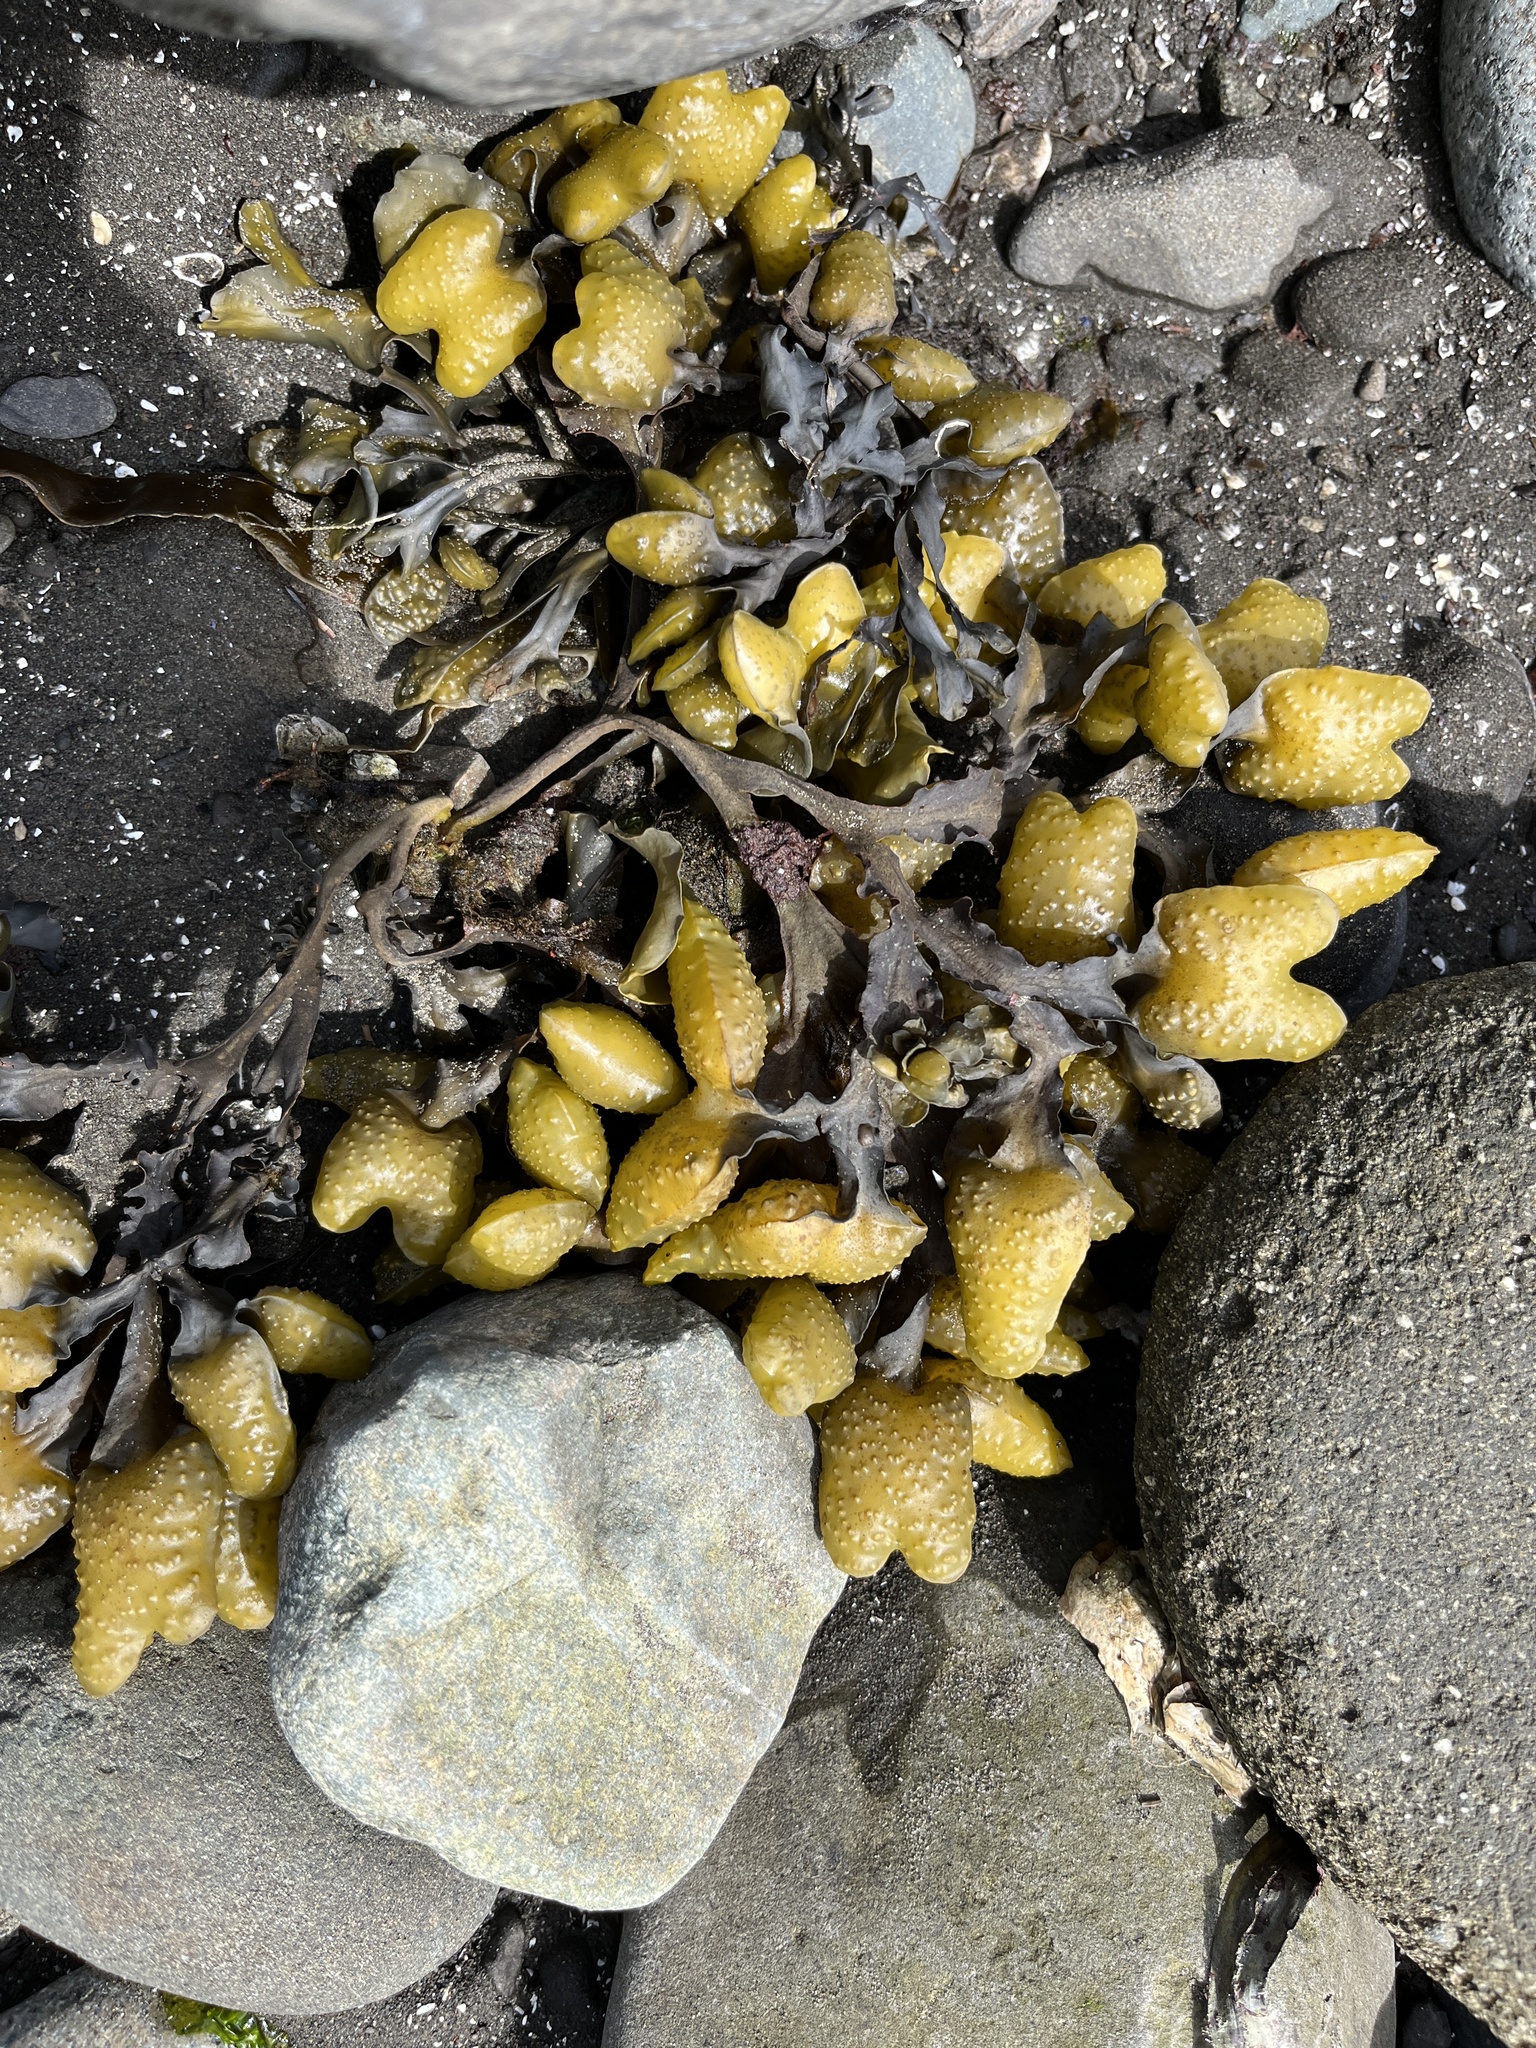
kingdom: Chromista
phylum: Ochrophyta
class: Phaeophyceae
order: Fucales
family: Fucaceae
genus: Fucus
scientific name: Fucus distichus
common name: Rockweed
